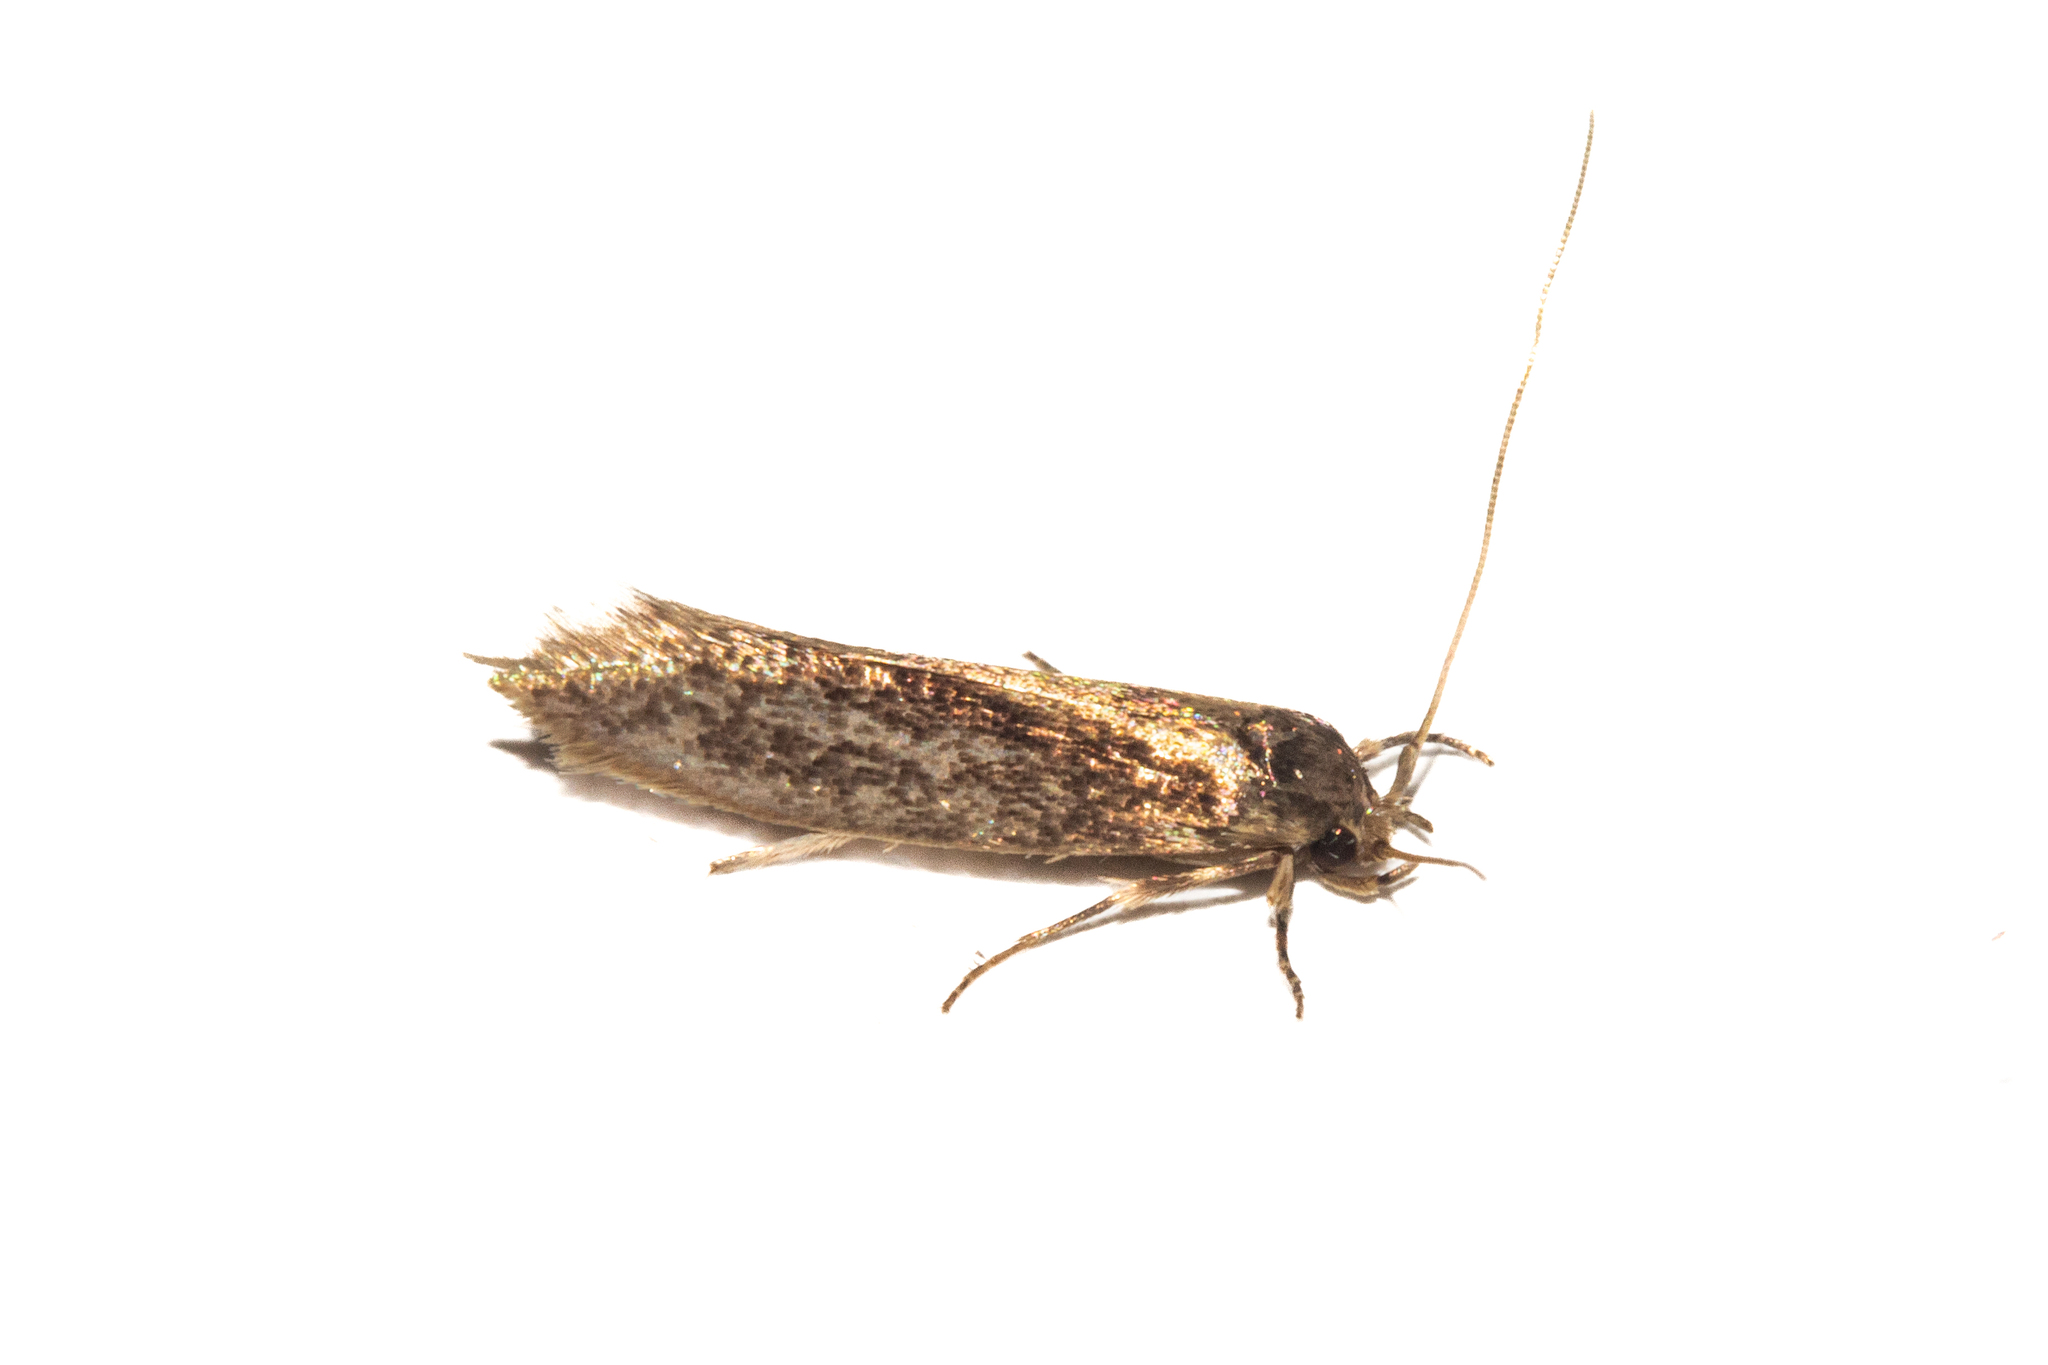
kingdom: Animalia
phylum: Arthropoda
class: Insecta
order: Lepidoptera
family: Tineidae
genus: Opogona
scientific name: Opogona omoscopa
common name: Moth
